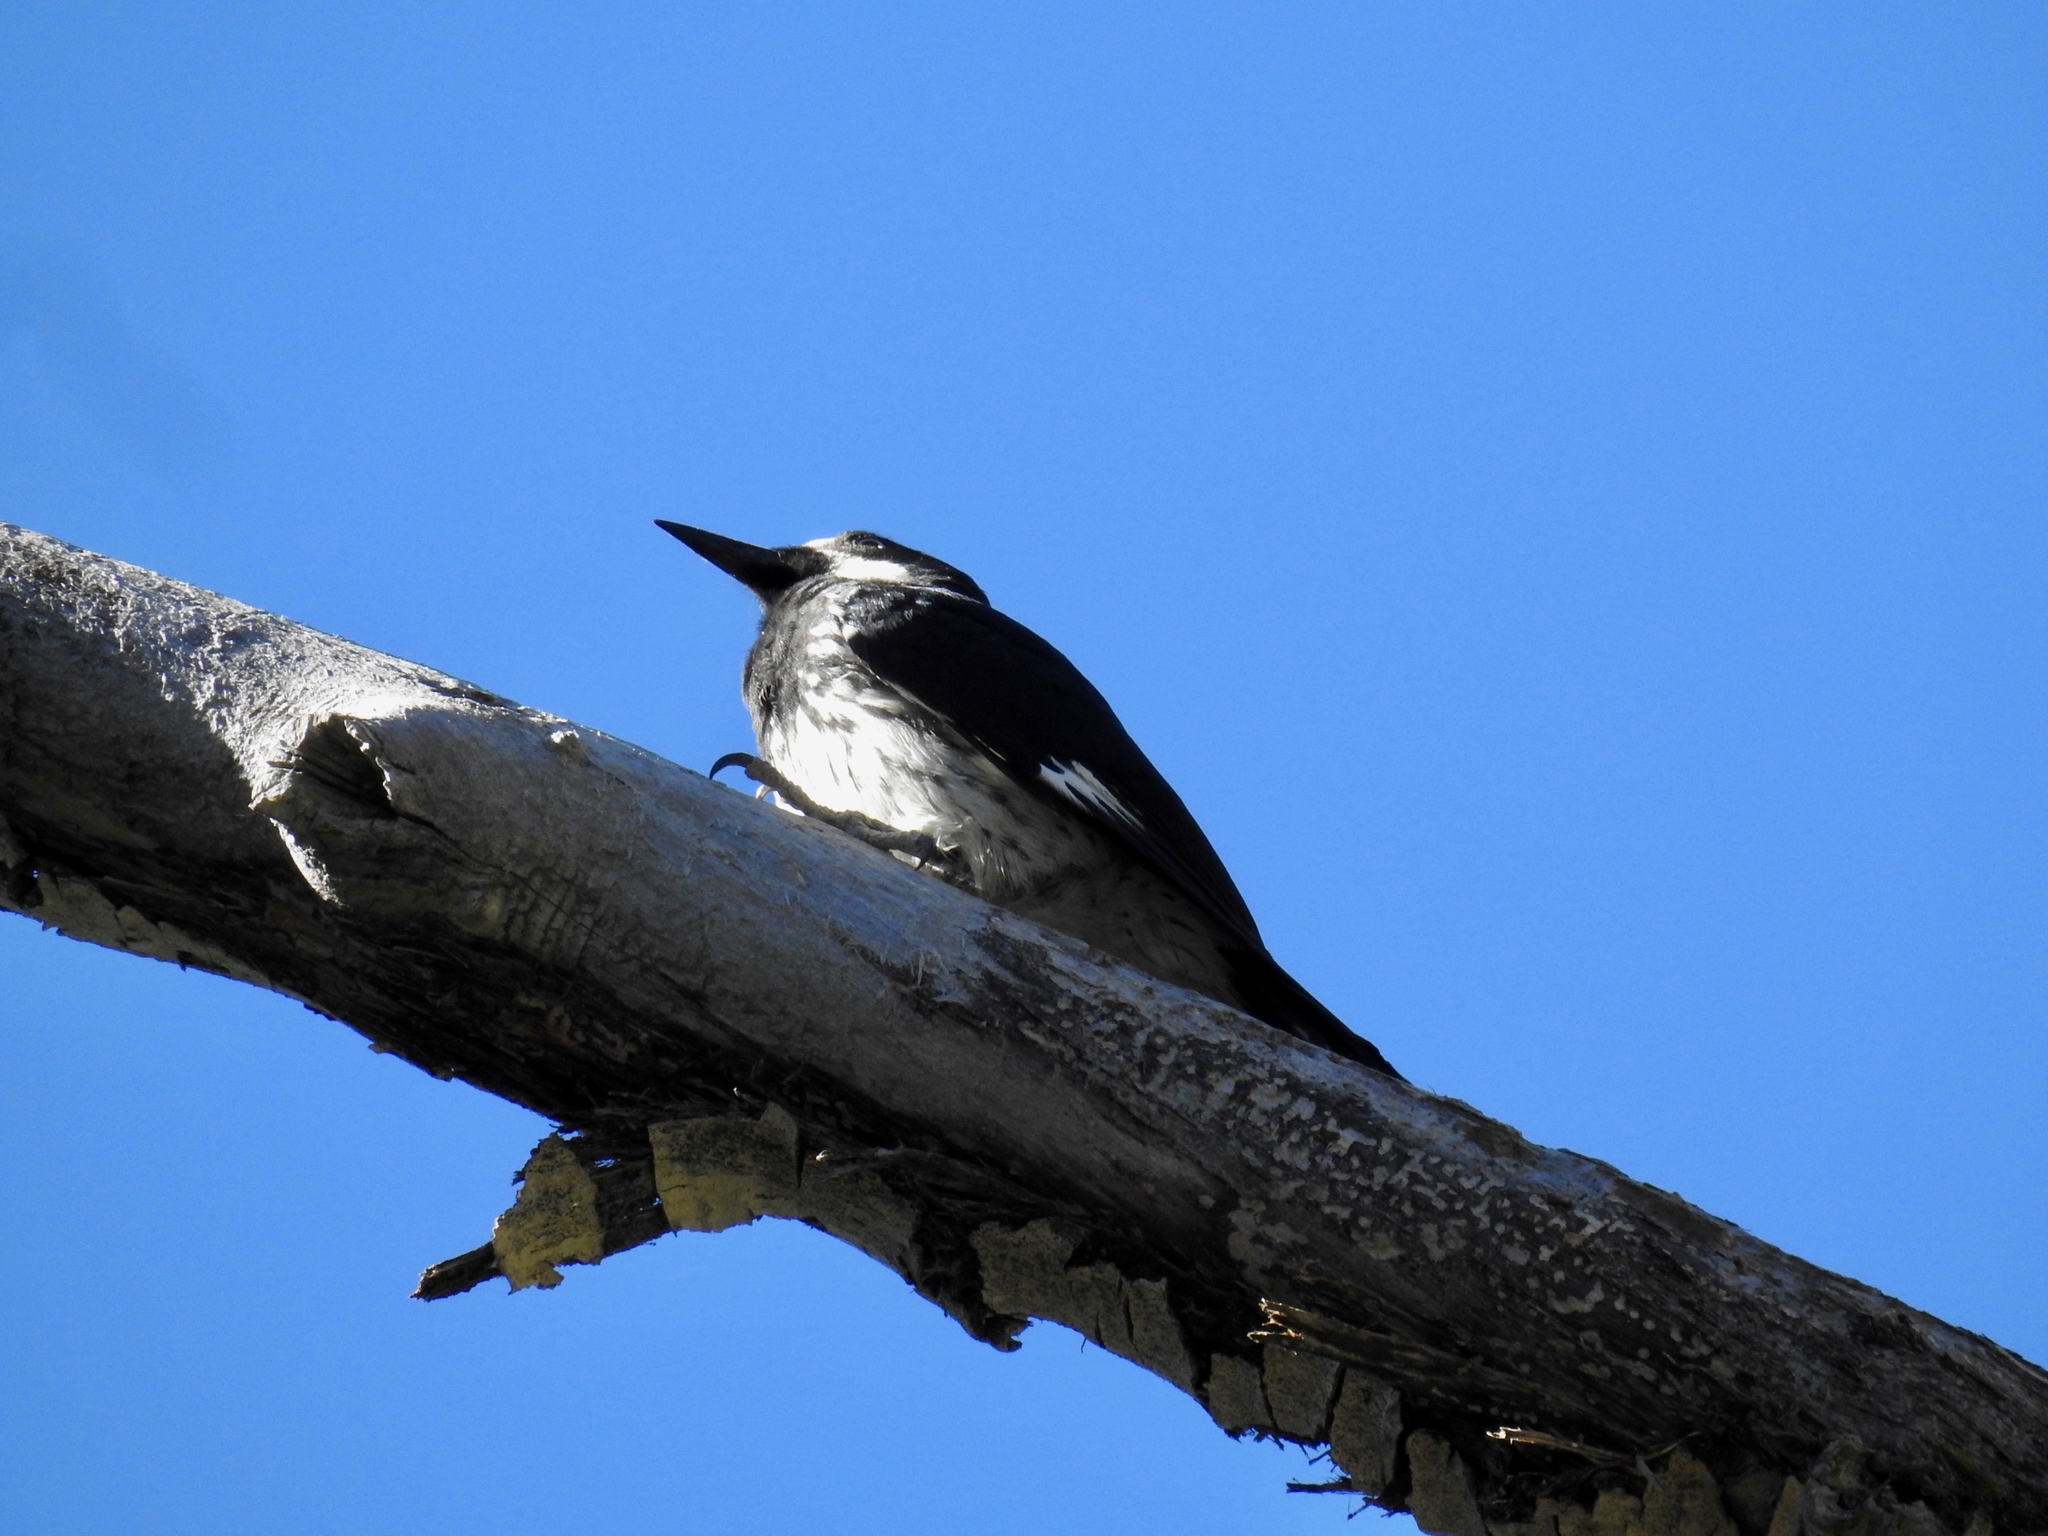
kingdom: Animalia
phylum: Chordata
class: Aves
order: Piciformes
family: Picidae
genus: Melanerpes
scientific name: Melanerpes formicivorus
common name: Acorn woodpecker
